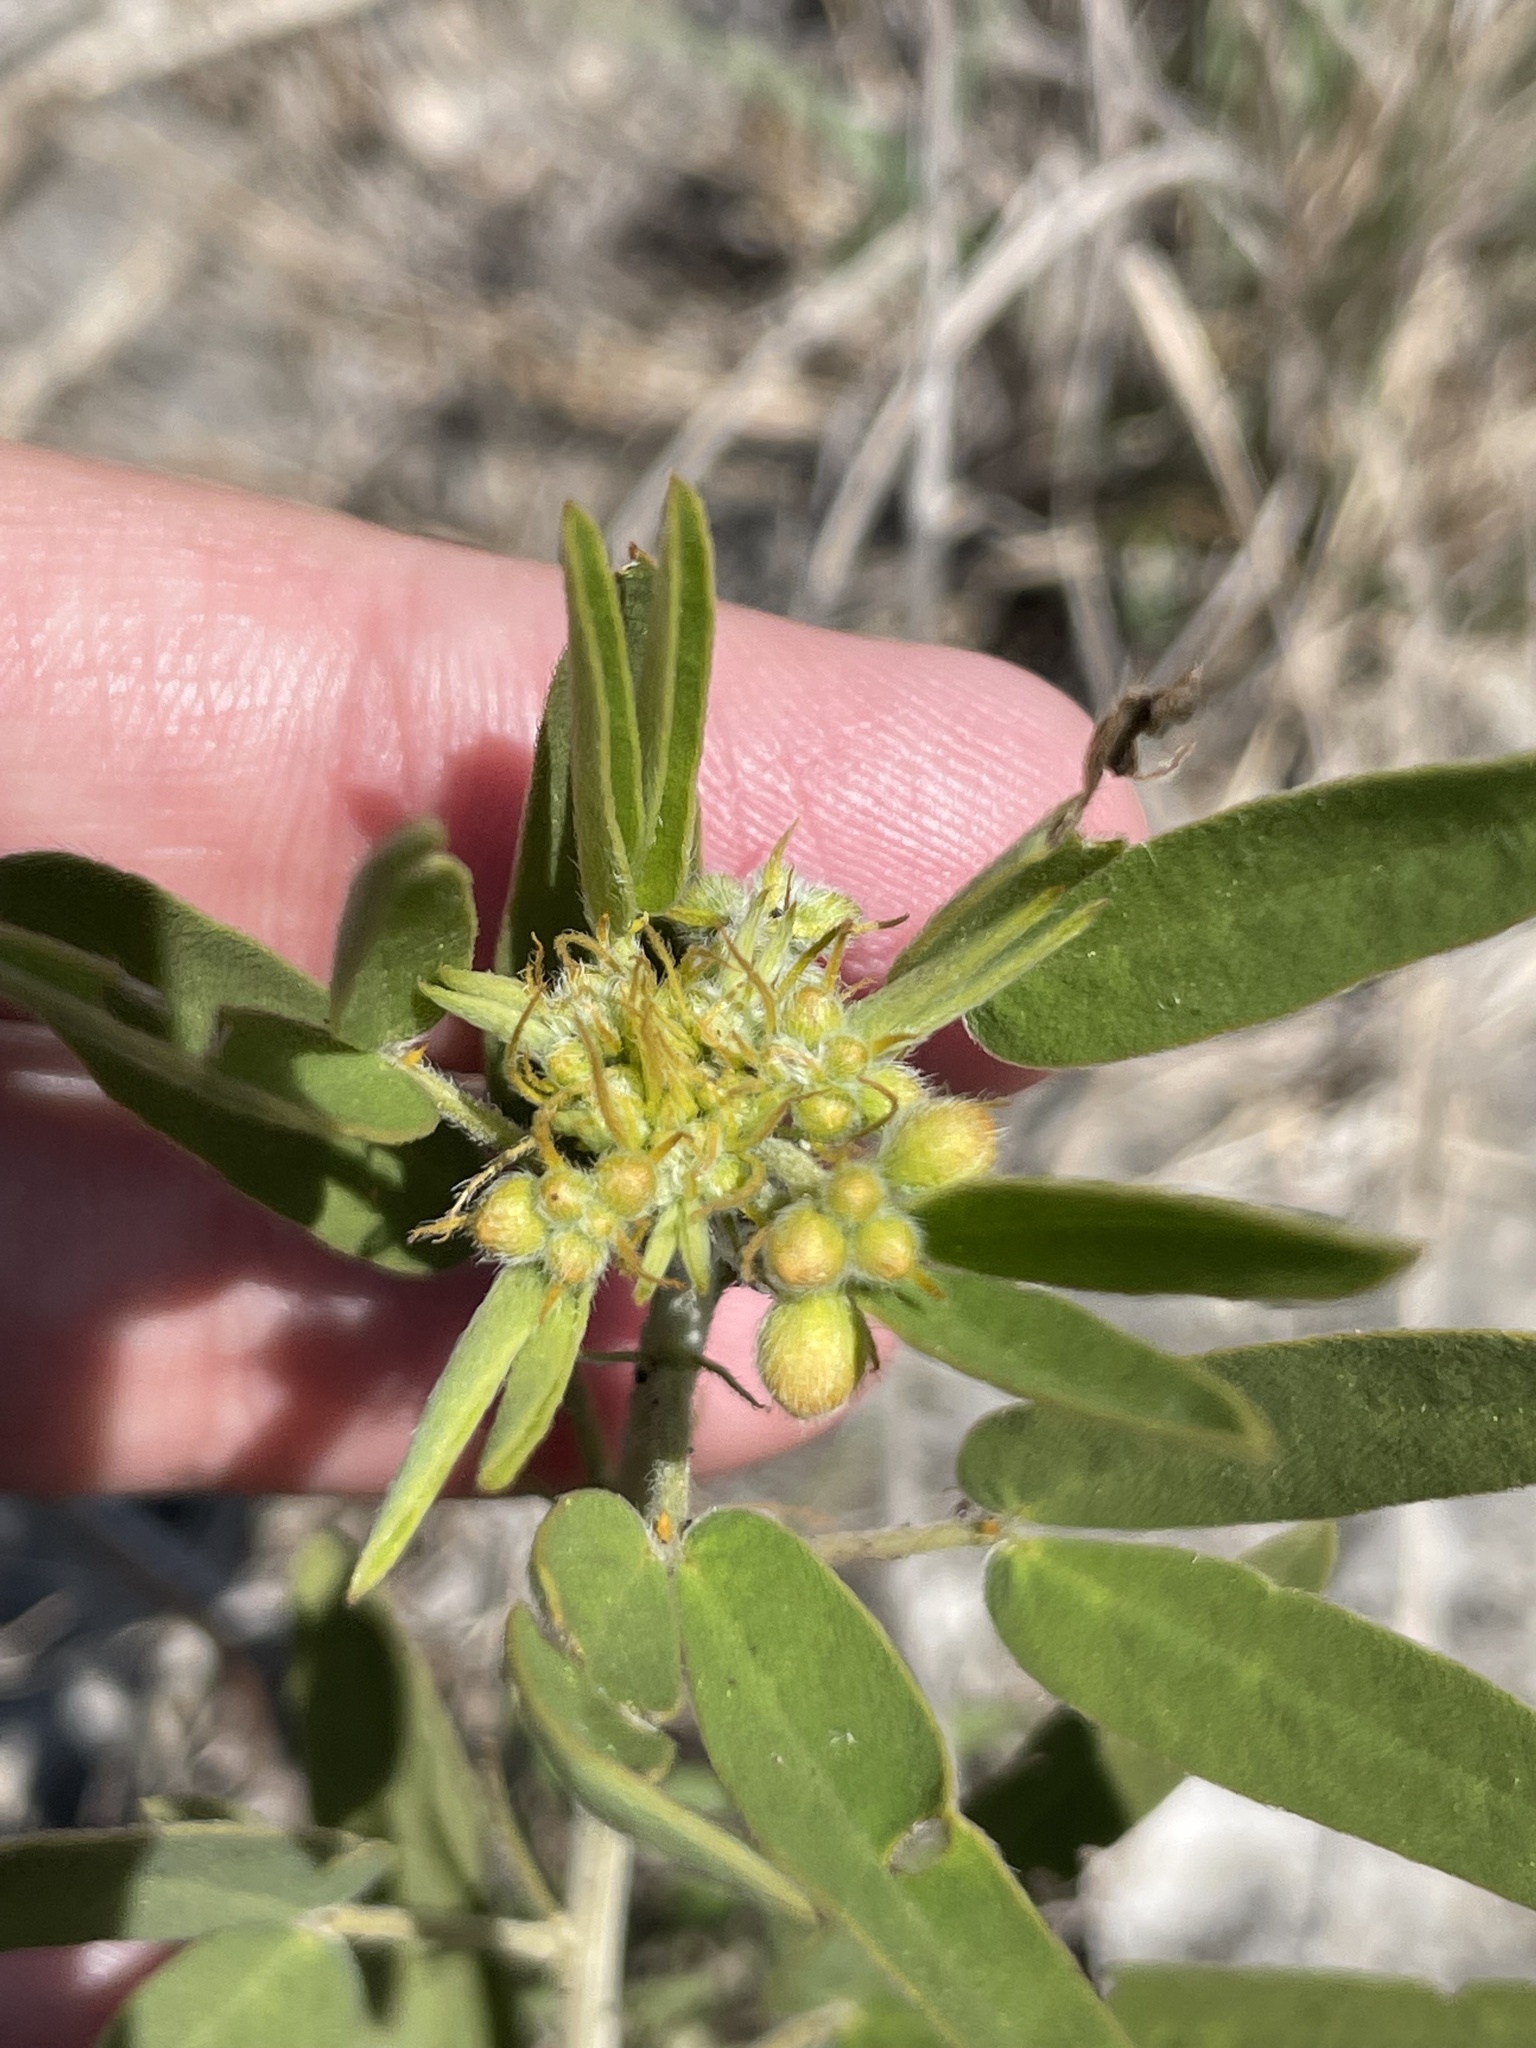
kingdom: Plantae
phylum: Tracheophyta
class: Magnoliopsida
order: Fabales
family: Fabaceae
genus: Senna
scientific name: Senna roemeriana
